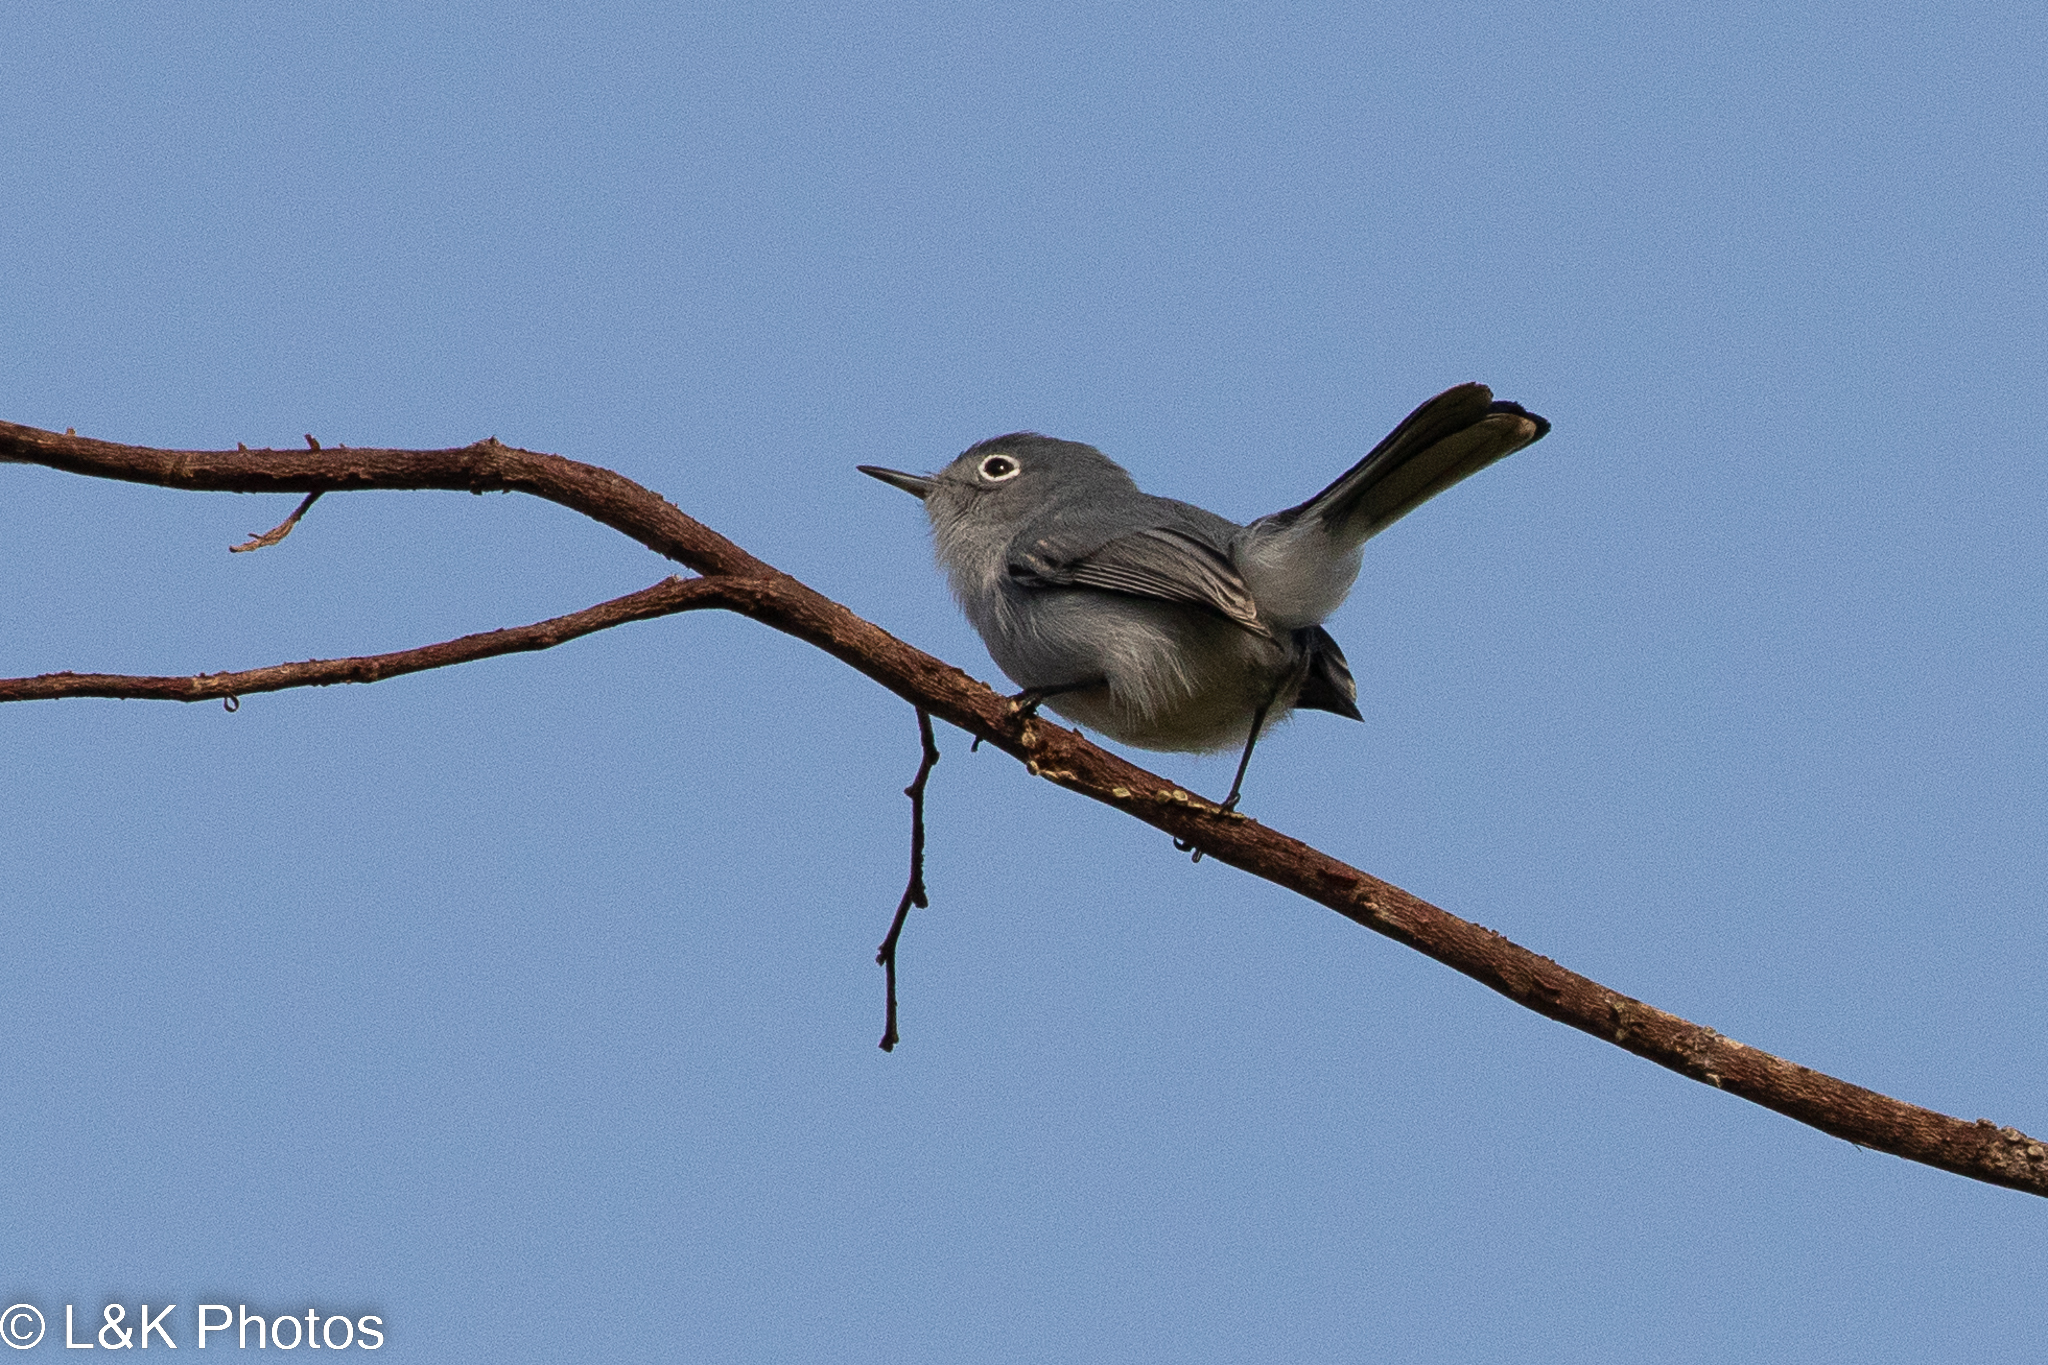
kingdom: Animalia
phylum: Chordata
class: Aves
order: Passeriformes
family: Polioptilidae
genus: Polioptila
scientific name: Polioptila caerulea
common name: Blue-gray gnatcatcher
